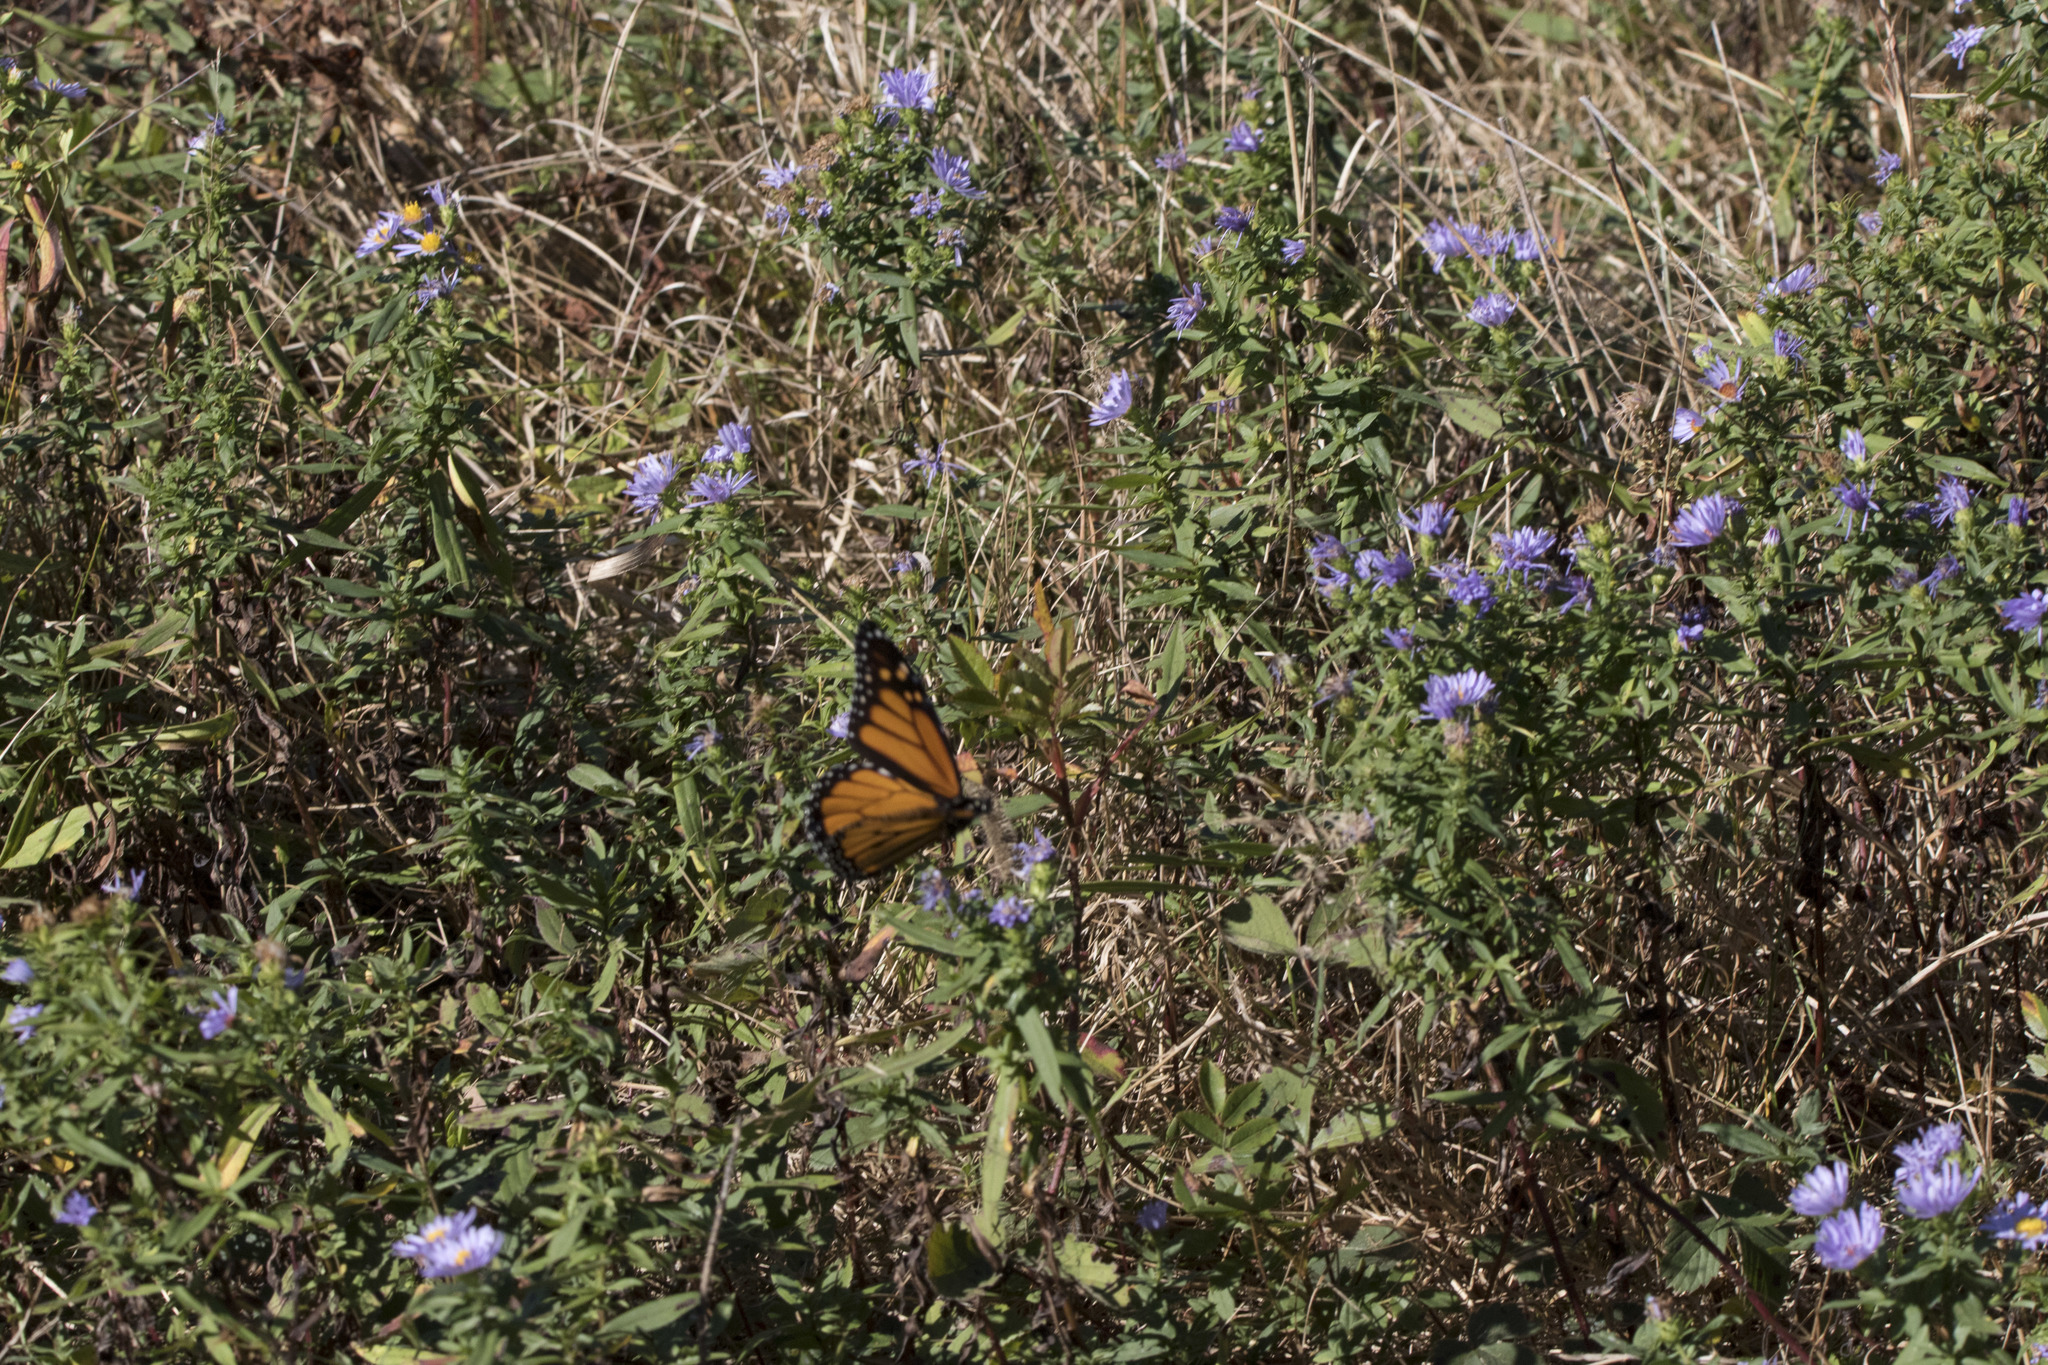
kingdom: Animalia
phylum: Arthropoda
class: Insecta
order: Lepidoptera
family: Nymphalidae
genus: Danaus
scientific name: Danaus plexippus
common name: Monarch
